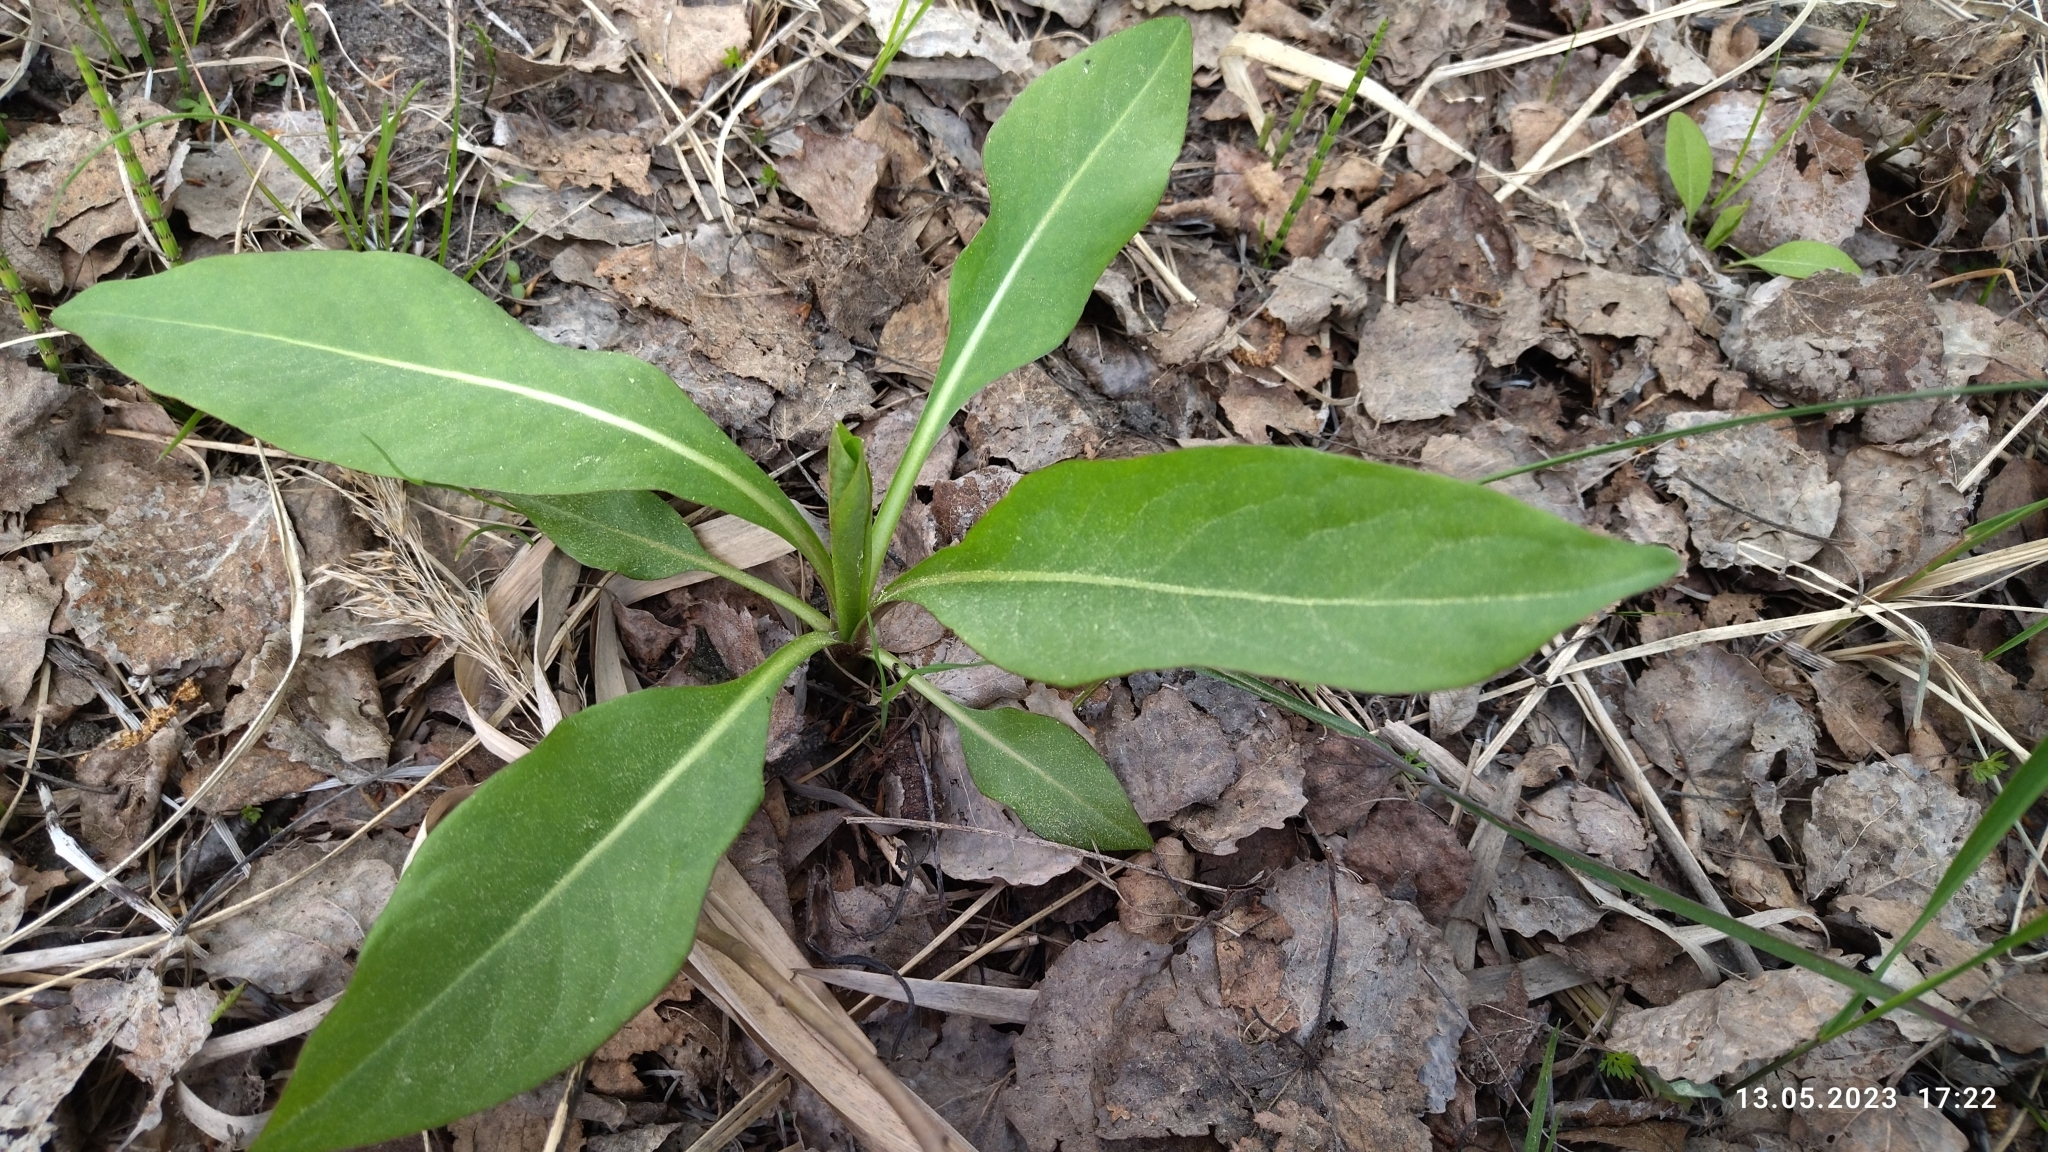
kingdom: Plantae
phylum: Tracheophyta
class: Magnoliopsida
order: Dipsacales
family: Caprifoliaceae
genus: Succisa
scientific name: Succisa pratensis
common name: Devil's-bit
